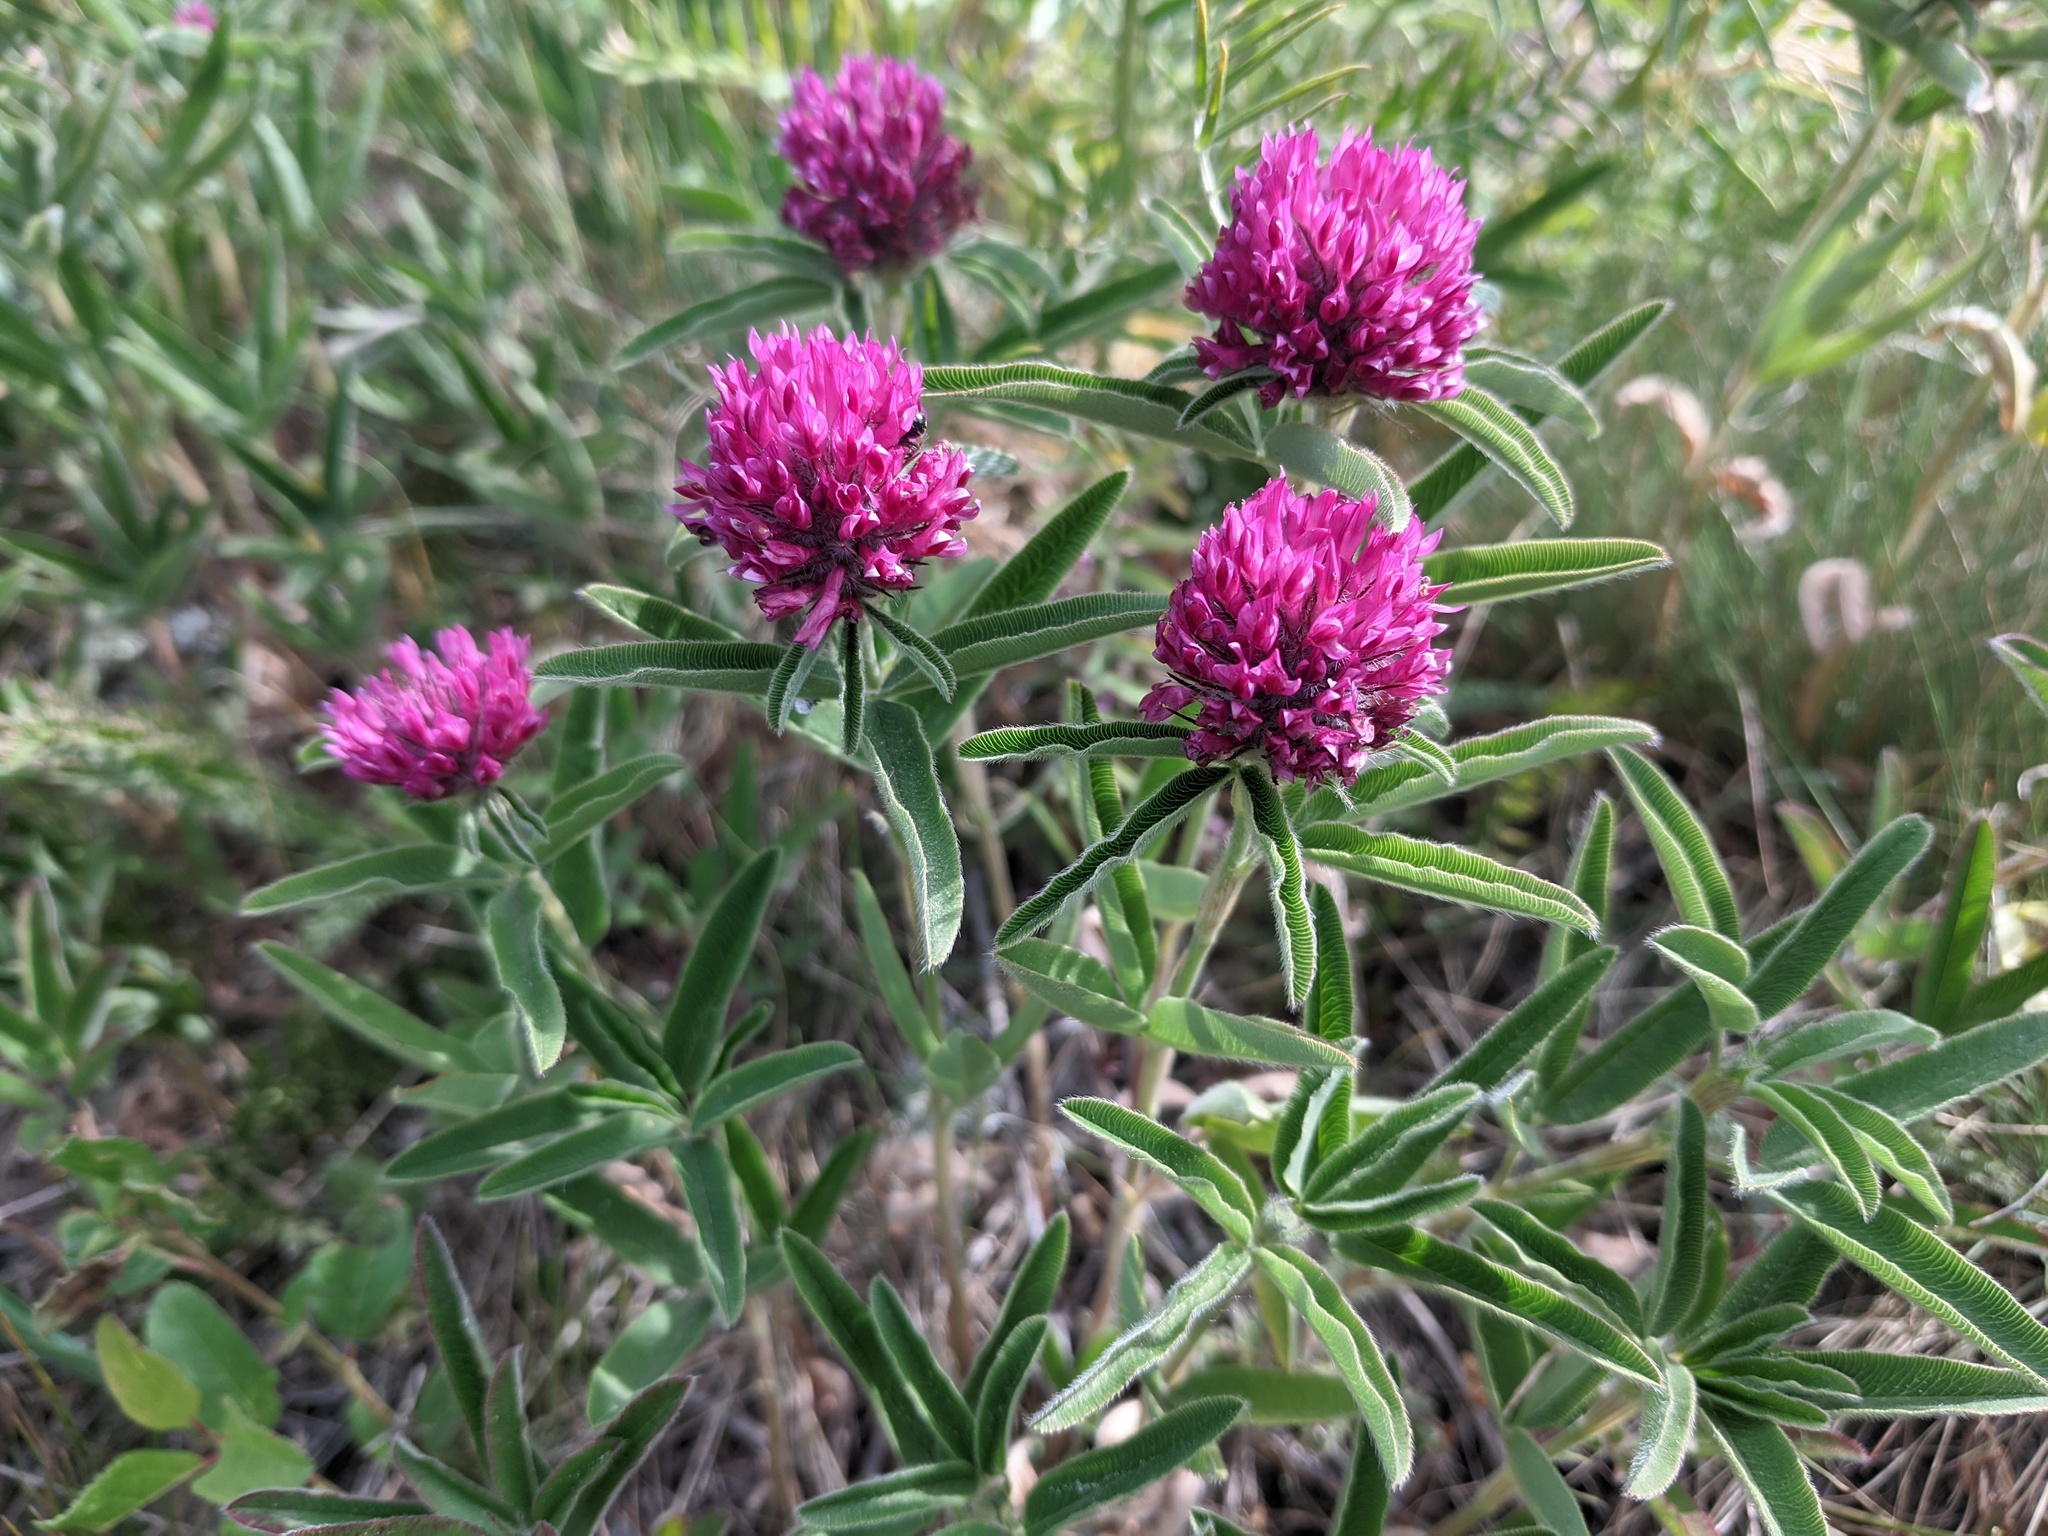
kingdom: Plantae
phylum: Tracheophyta
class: Magnoliopsida
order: Fabales
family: Fabaceae
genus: Trifolium
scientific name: Trifolium alpestre
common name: Owl-head clover
